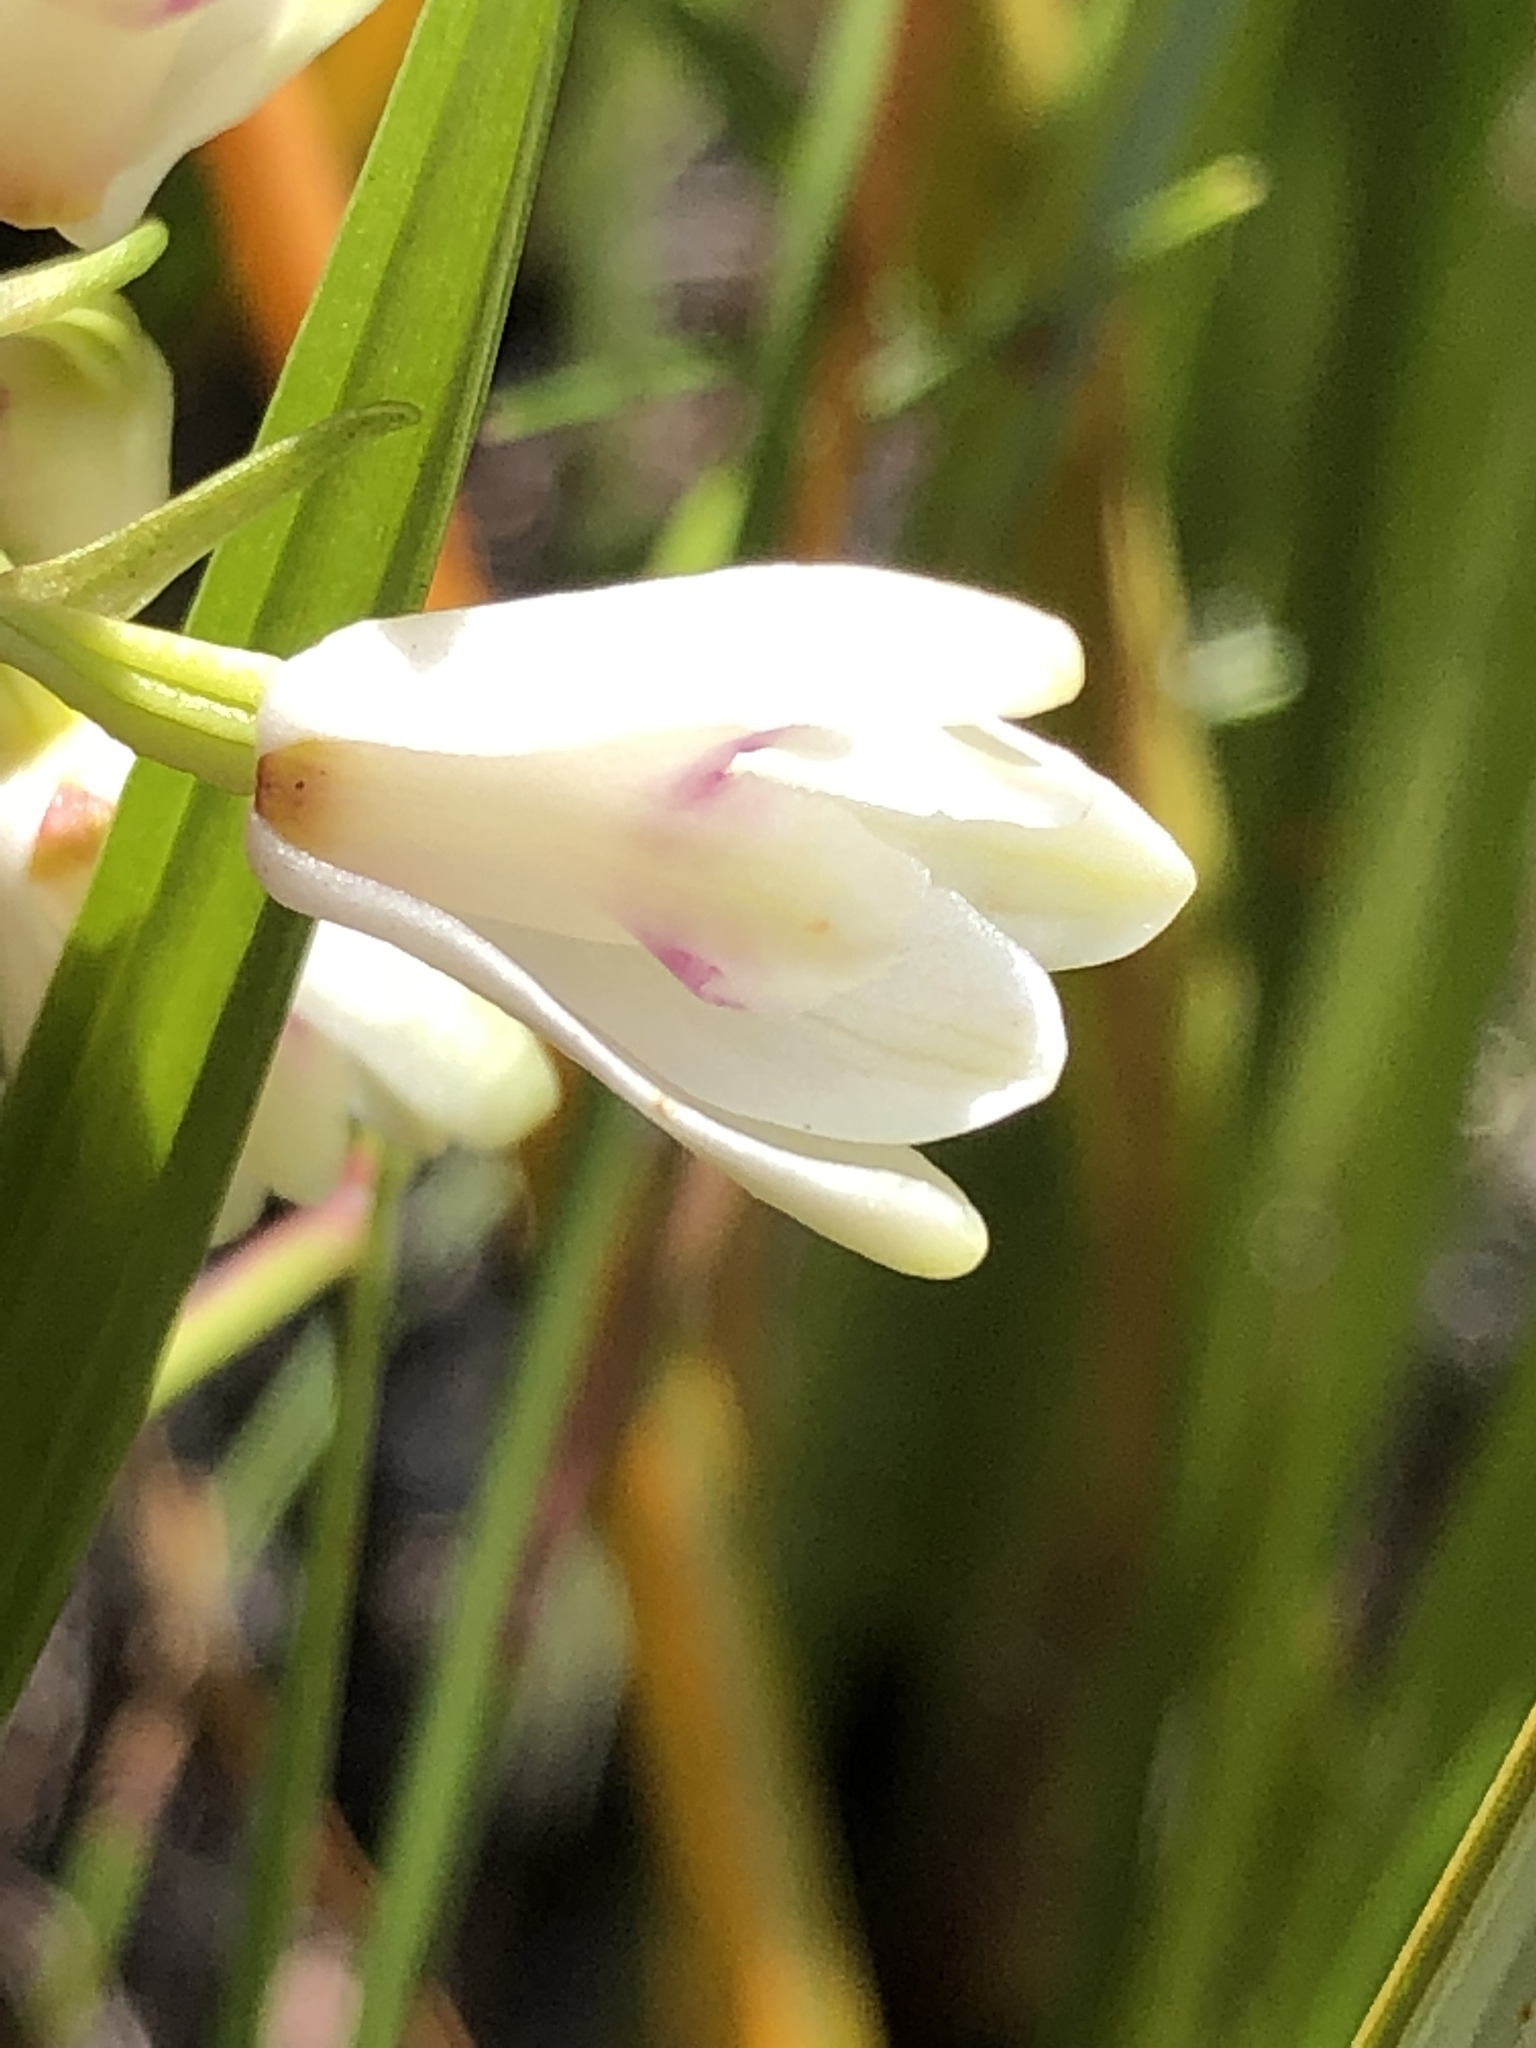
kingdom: Plantae
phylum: Tracheophyta
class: Liliopsida
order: Asparagales
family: Orchidaceae
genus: Eulophia
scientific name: Eulophia aculeata
